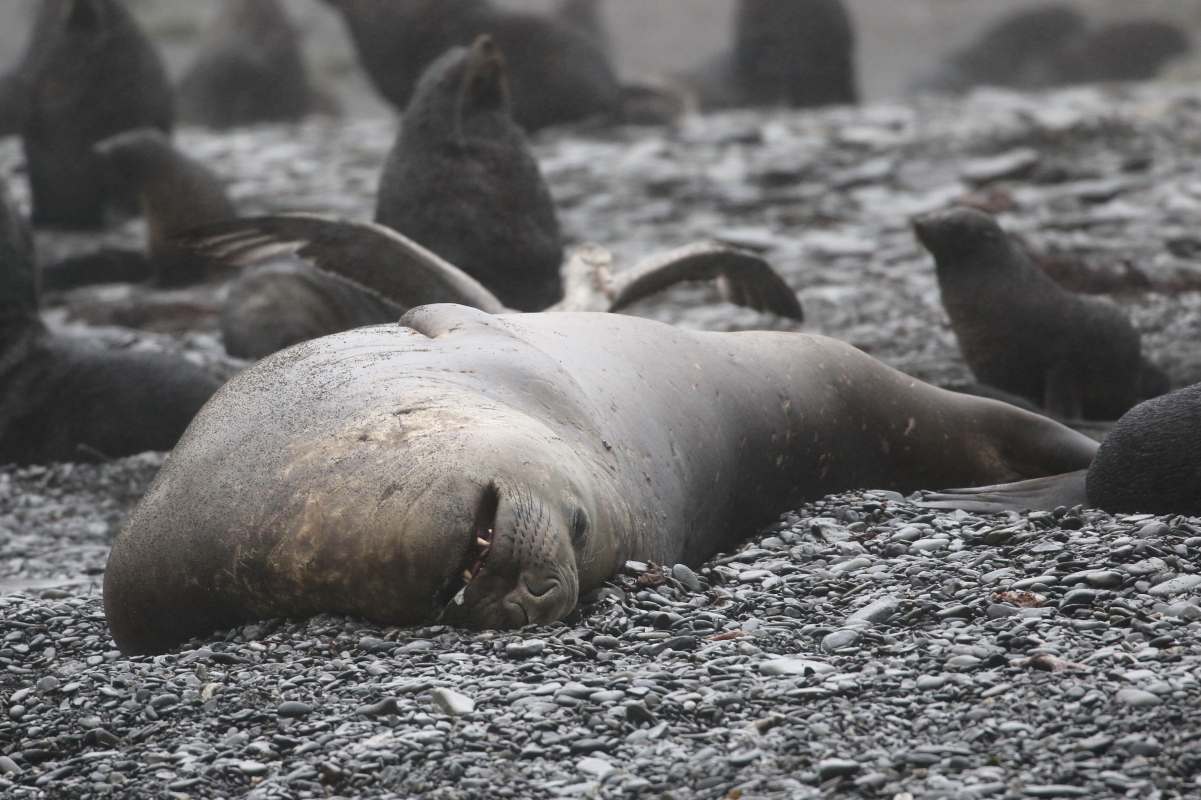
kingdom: Animalia
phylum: Chordata
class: Mammalia
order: Carnivora
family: Phocidae
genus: Mirounga
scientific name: Mirounga leonina
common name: Southern elephant seal
